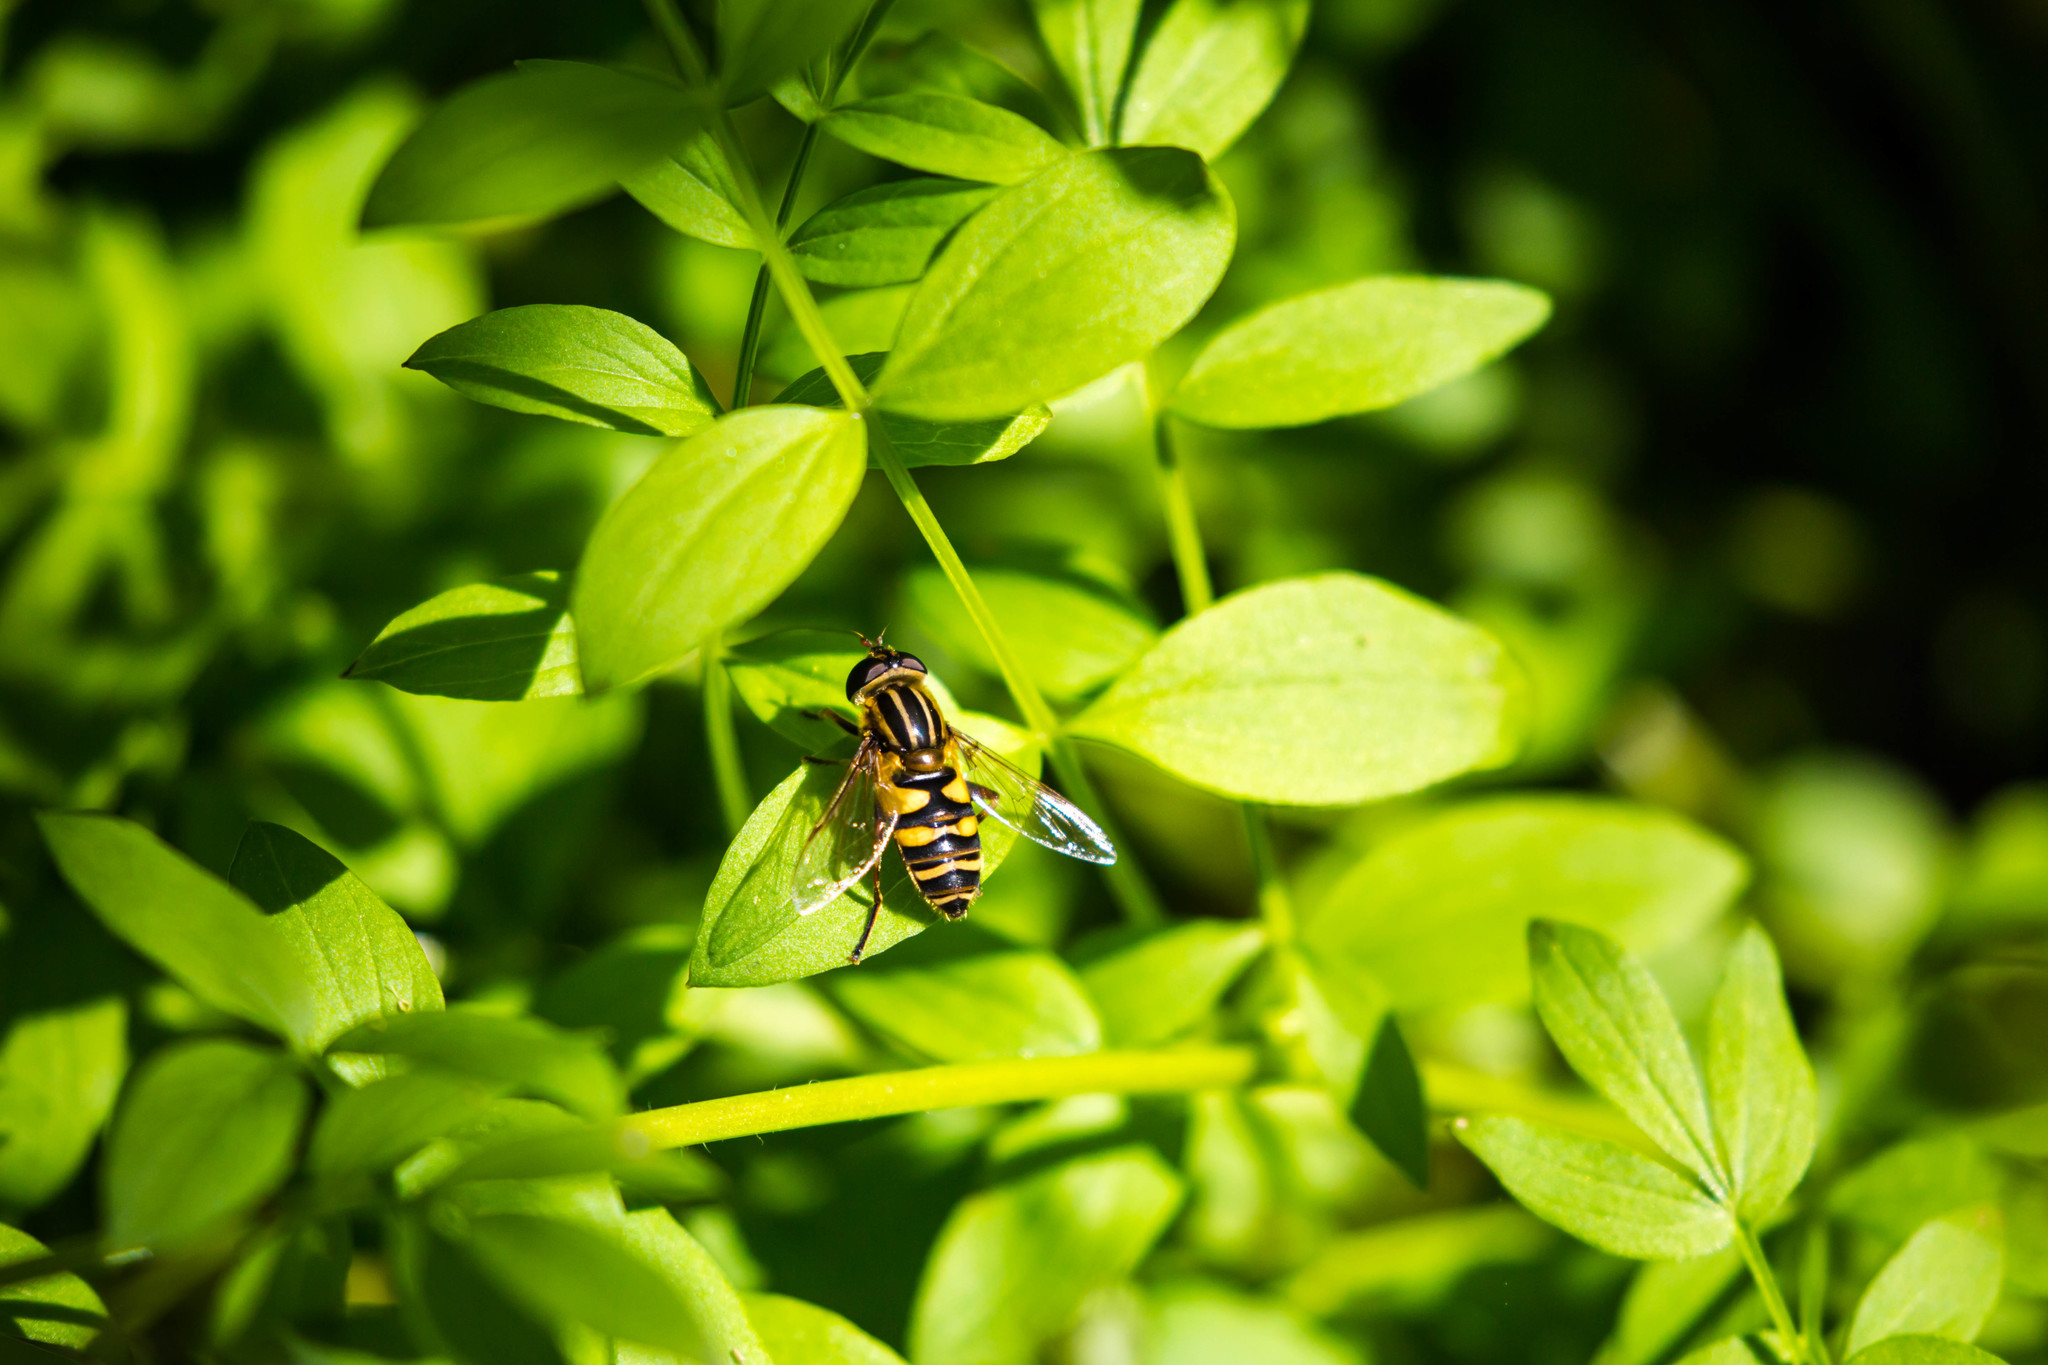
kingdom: Animalia
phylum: Arthropoda
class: Insecta
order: Diptera
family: Syrphidae
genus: Helophilus
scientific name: Helophilus fasciatus
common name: Narrow-headed marsh fly
